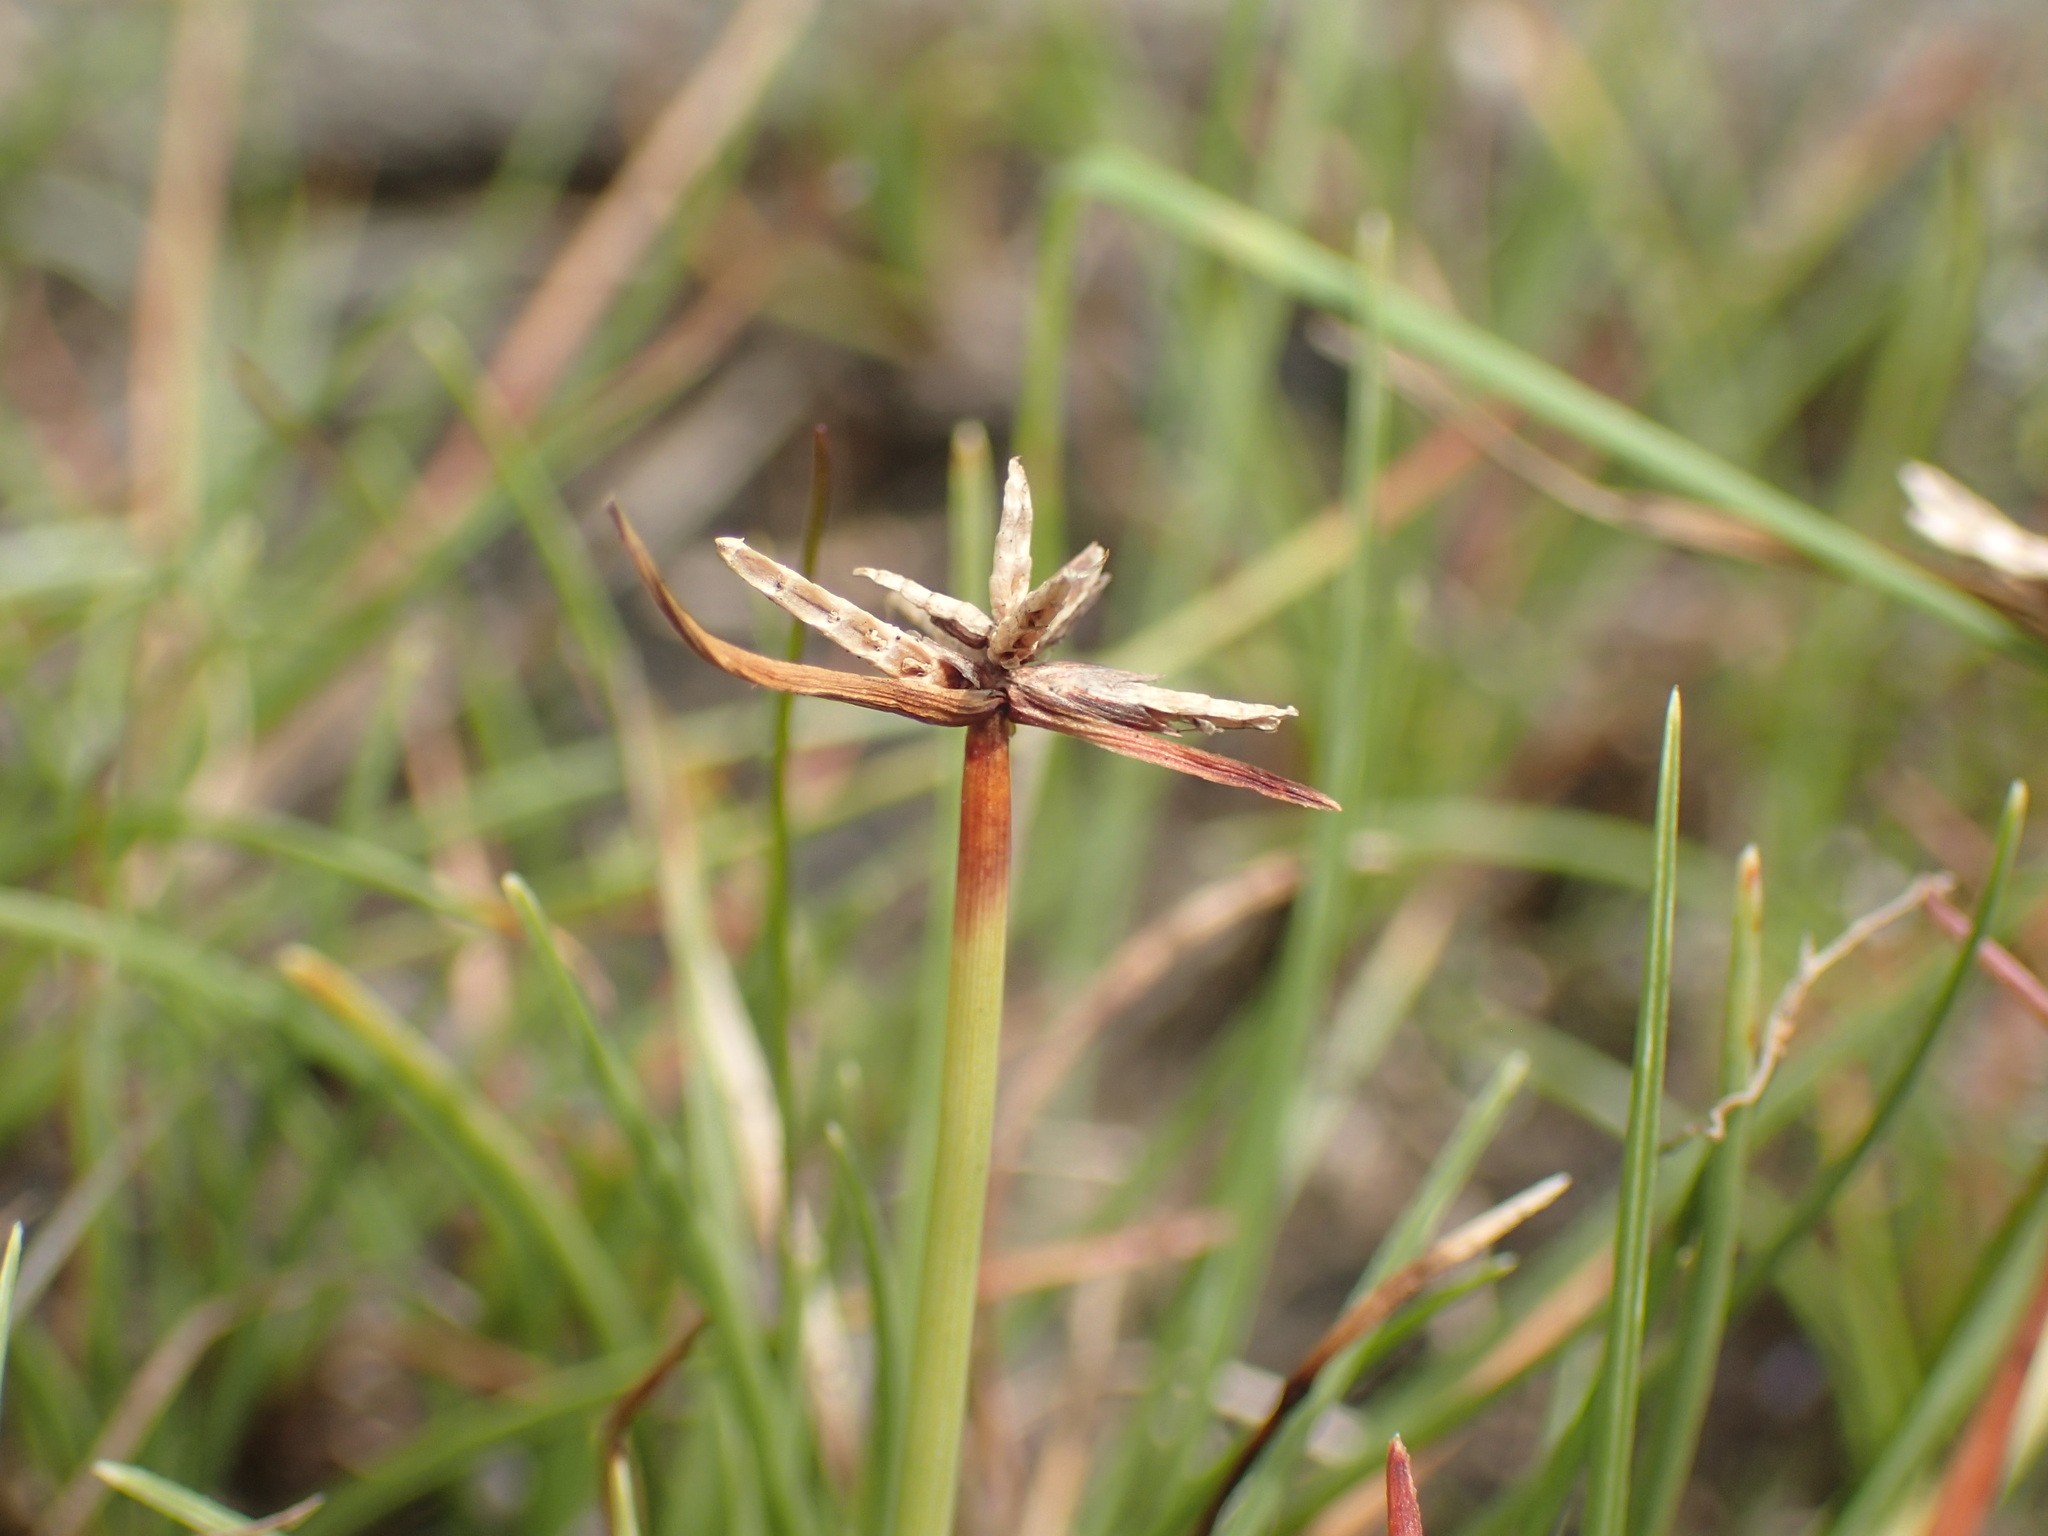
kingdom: Plantae
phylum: Tracheophyta
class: Liliopsida
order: Poales
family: Cyperaceae
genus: Cyperus
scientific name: Cyperus rupestris
